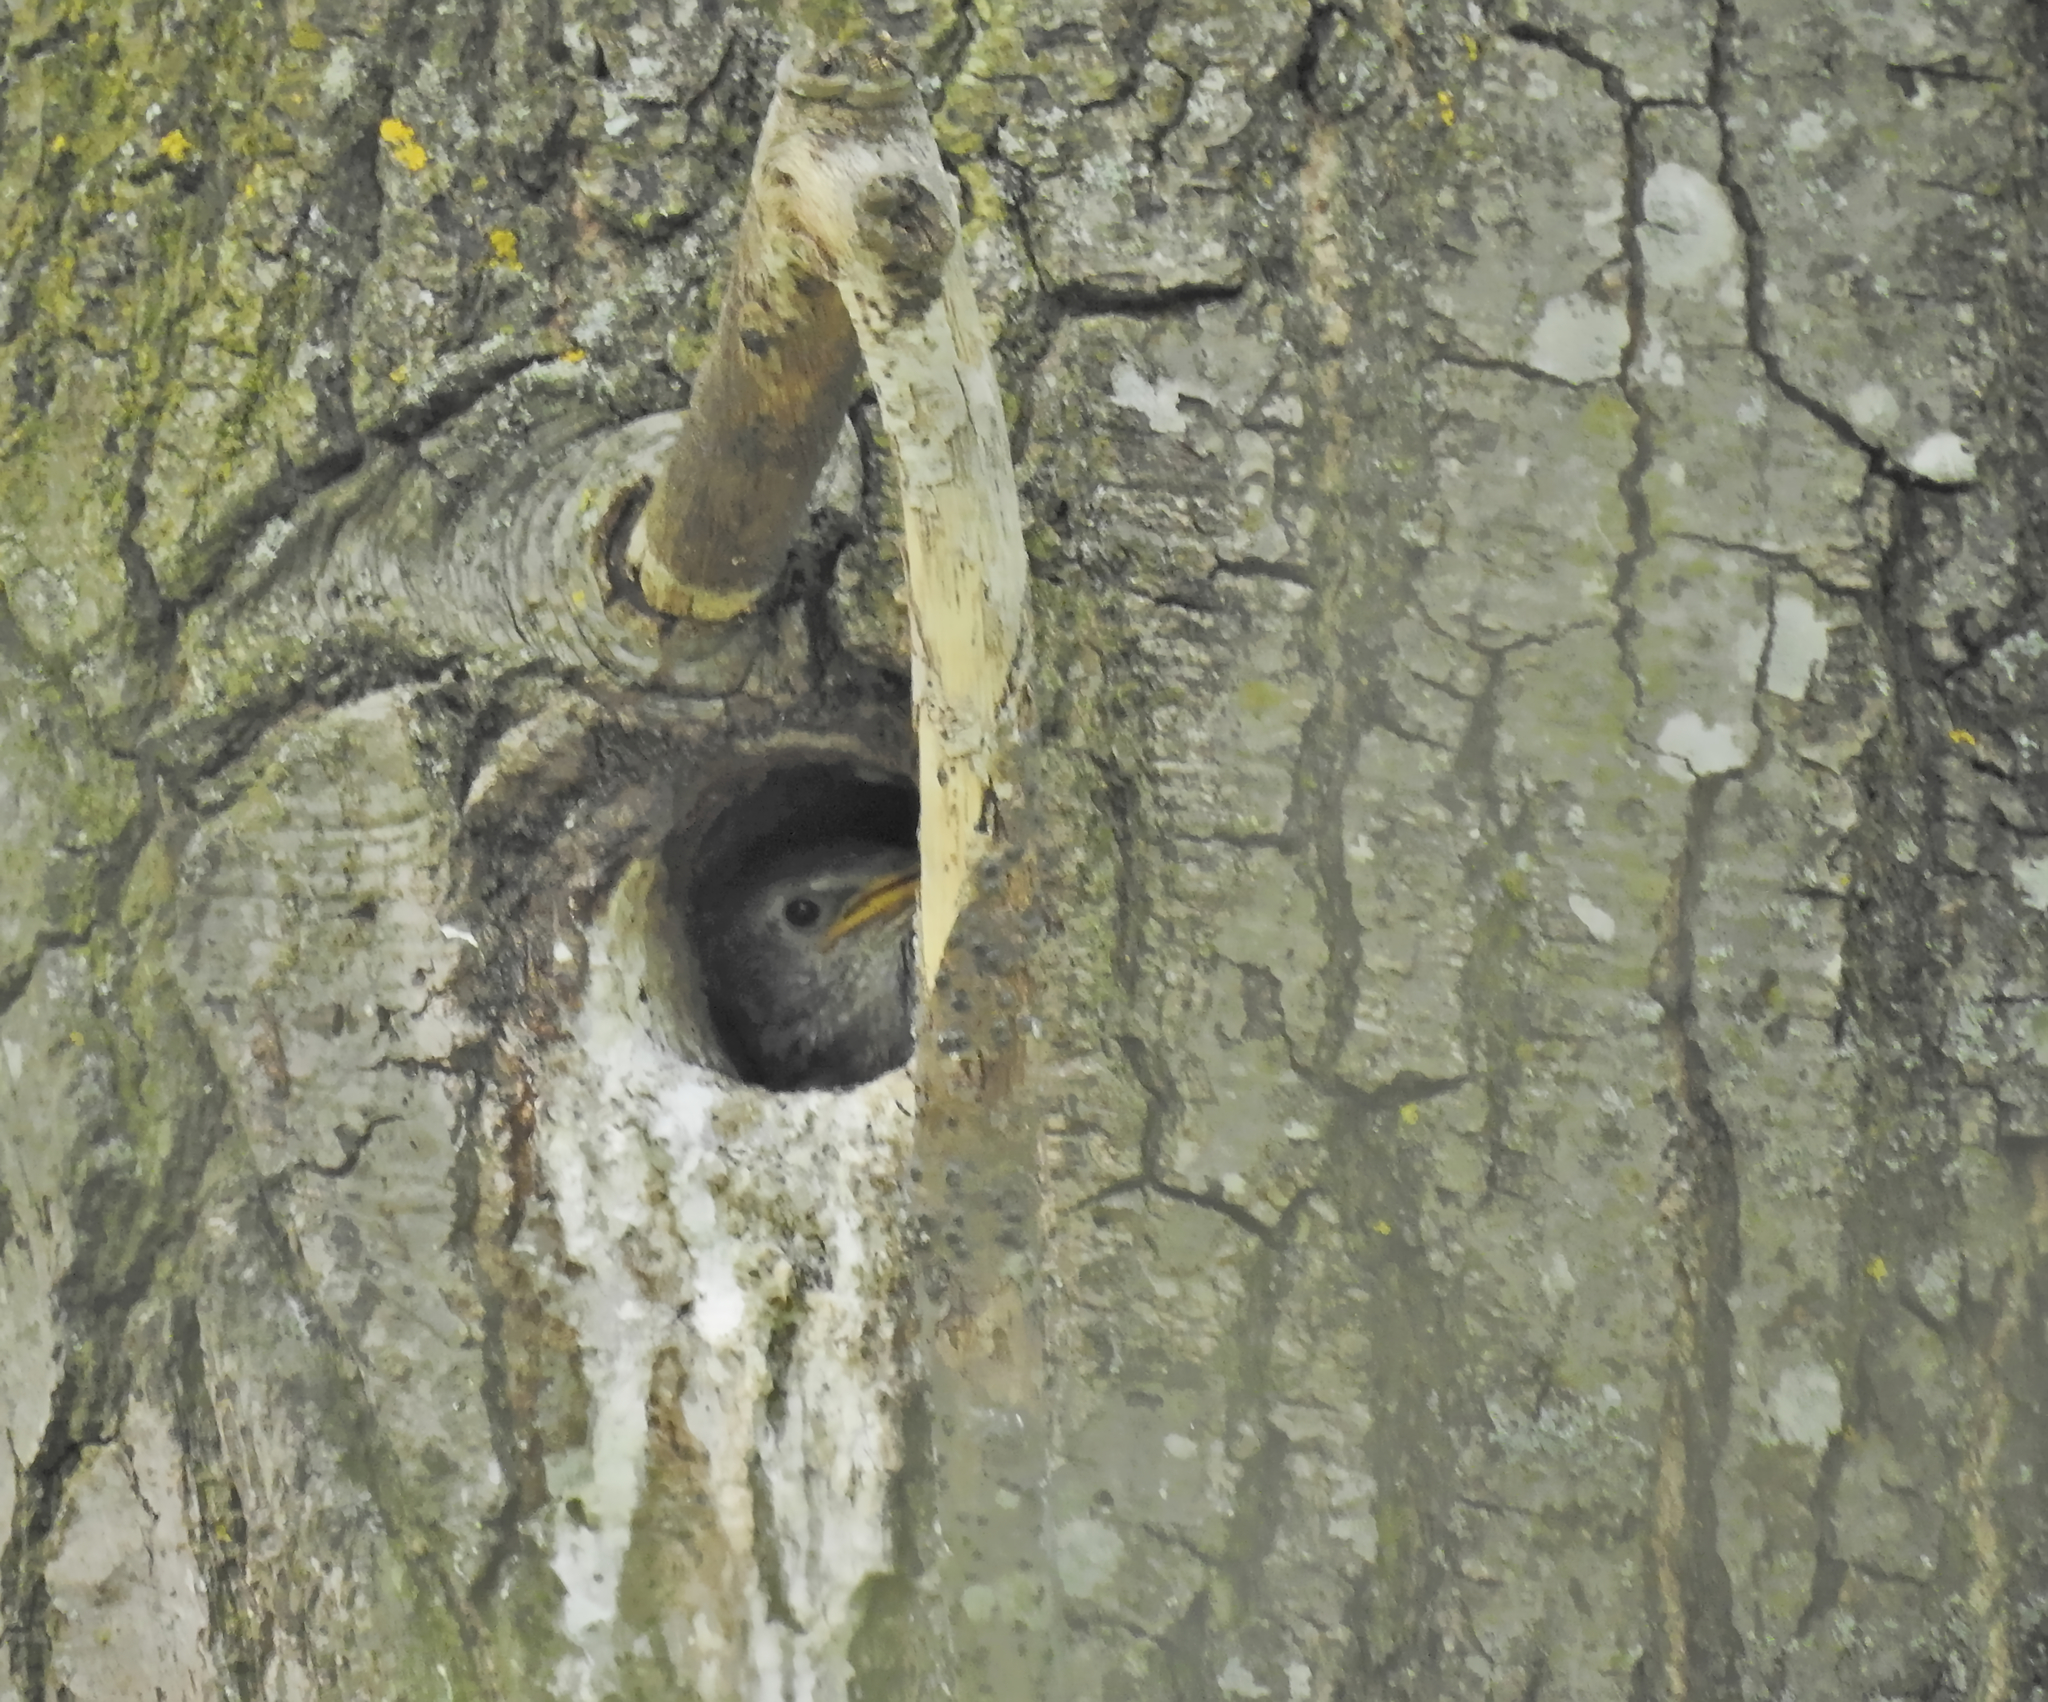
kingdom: Animalia
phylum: Chordata
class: Aves
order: Passeriformes
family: Sturnidae
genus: Sturnus
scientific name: Sturnus vulgaris
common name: Common starling
